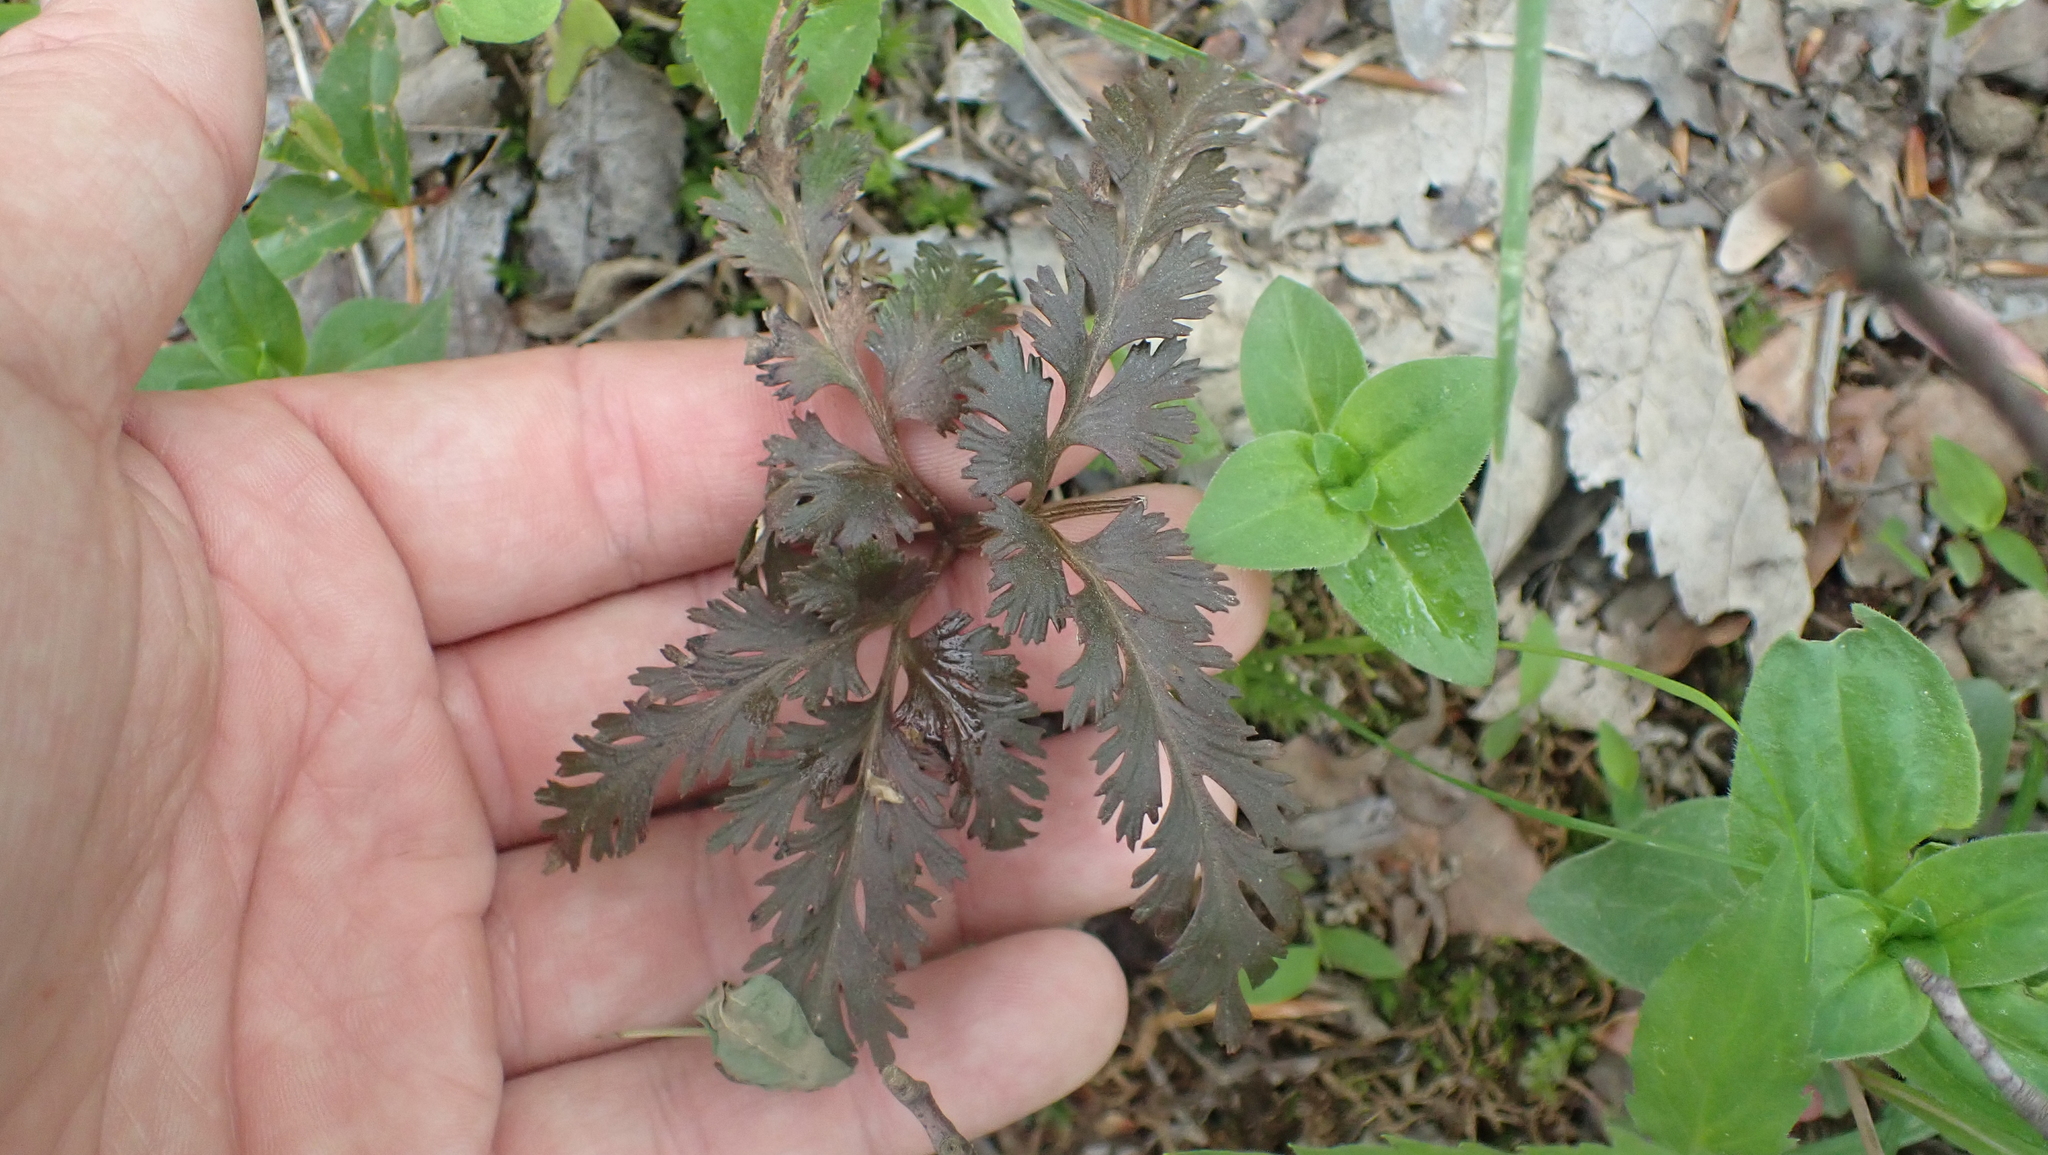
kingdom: Plantae
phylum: Tracheophyta
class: Polypodiopsida
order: Ophioglossales
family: Ophioglossaceae
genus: Sceptridium
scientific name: Sceptridium dissectum
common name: Cut-leaved grapefern
